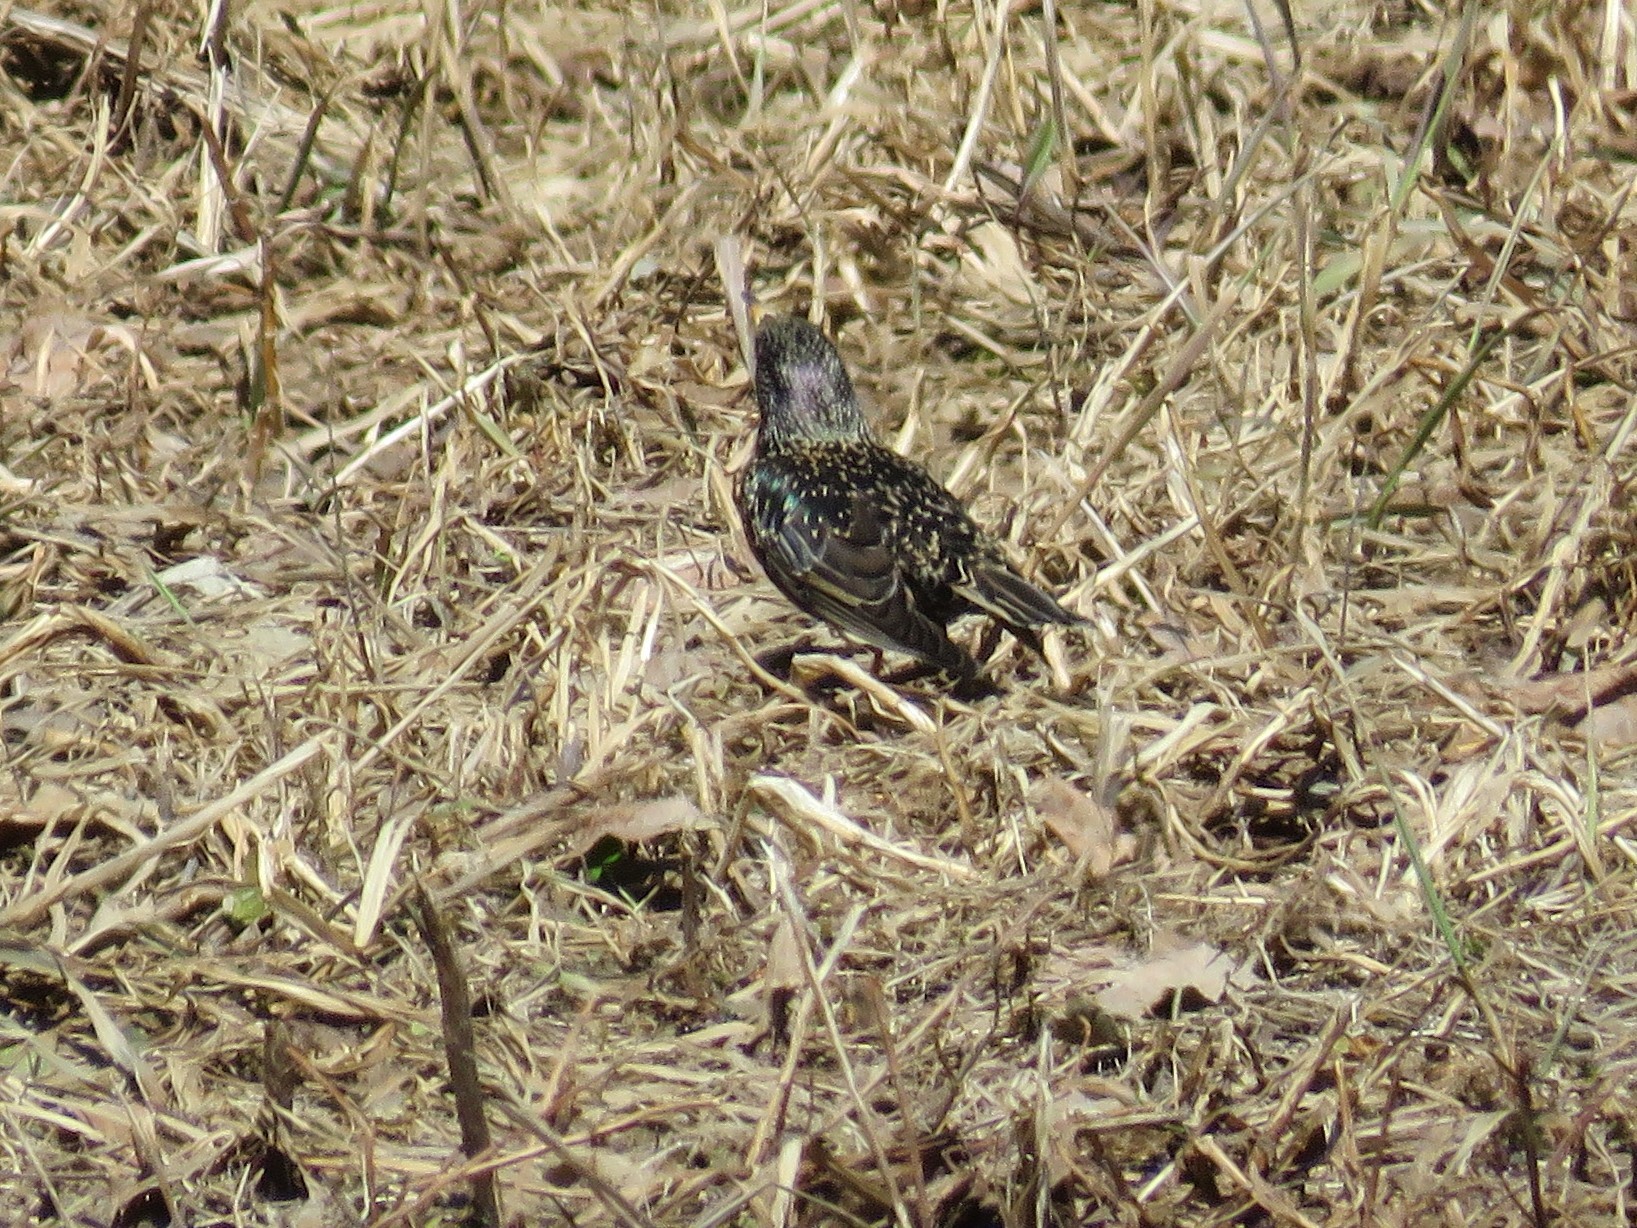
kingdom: Animalia
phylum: Chordata
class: Aves
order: Passeriformes
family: Sturnidae
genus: Sturnus
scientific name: Sturnus vulgaris
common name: Common starling
